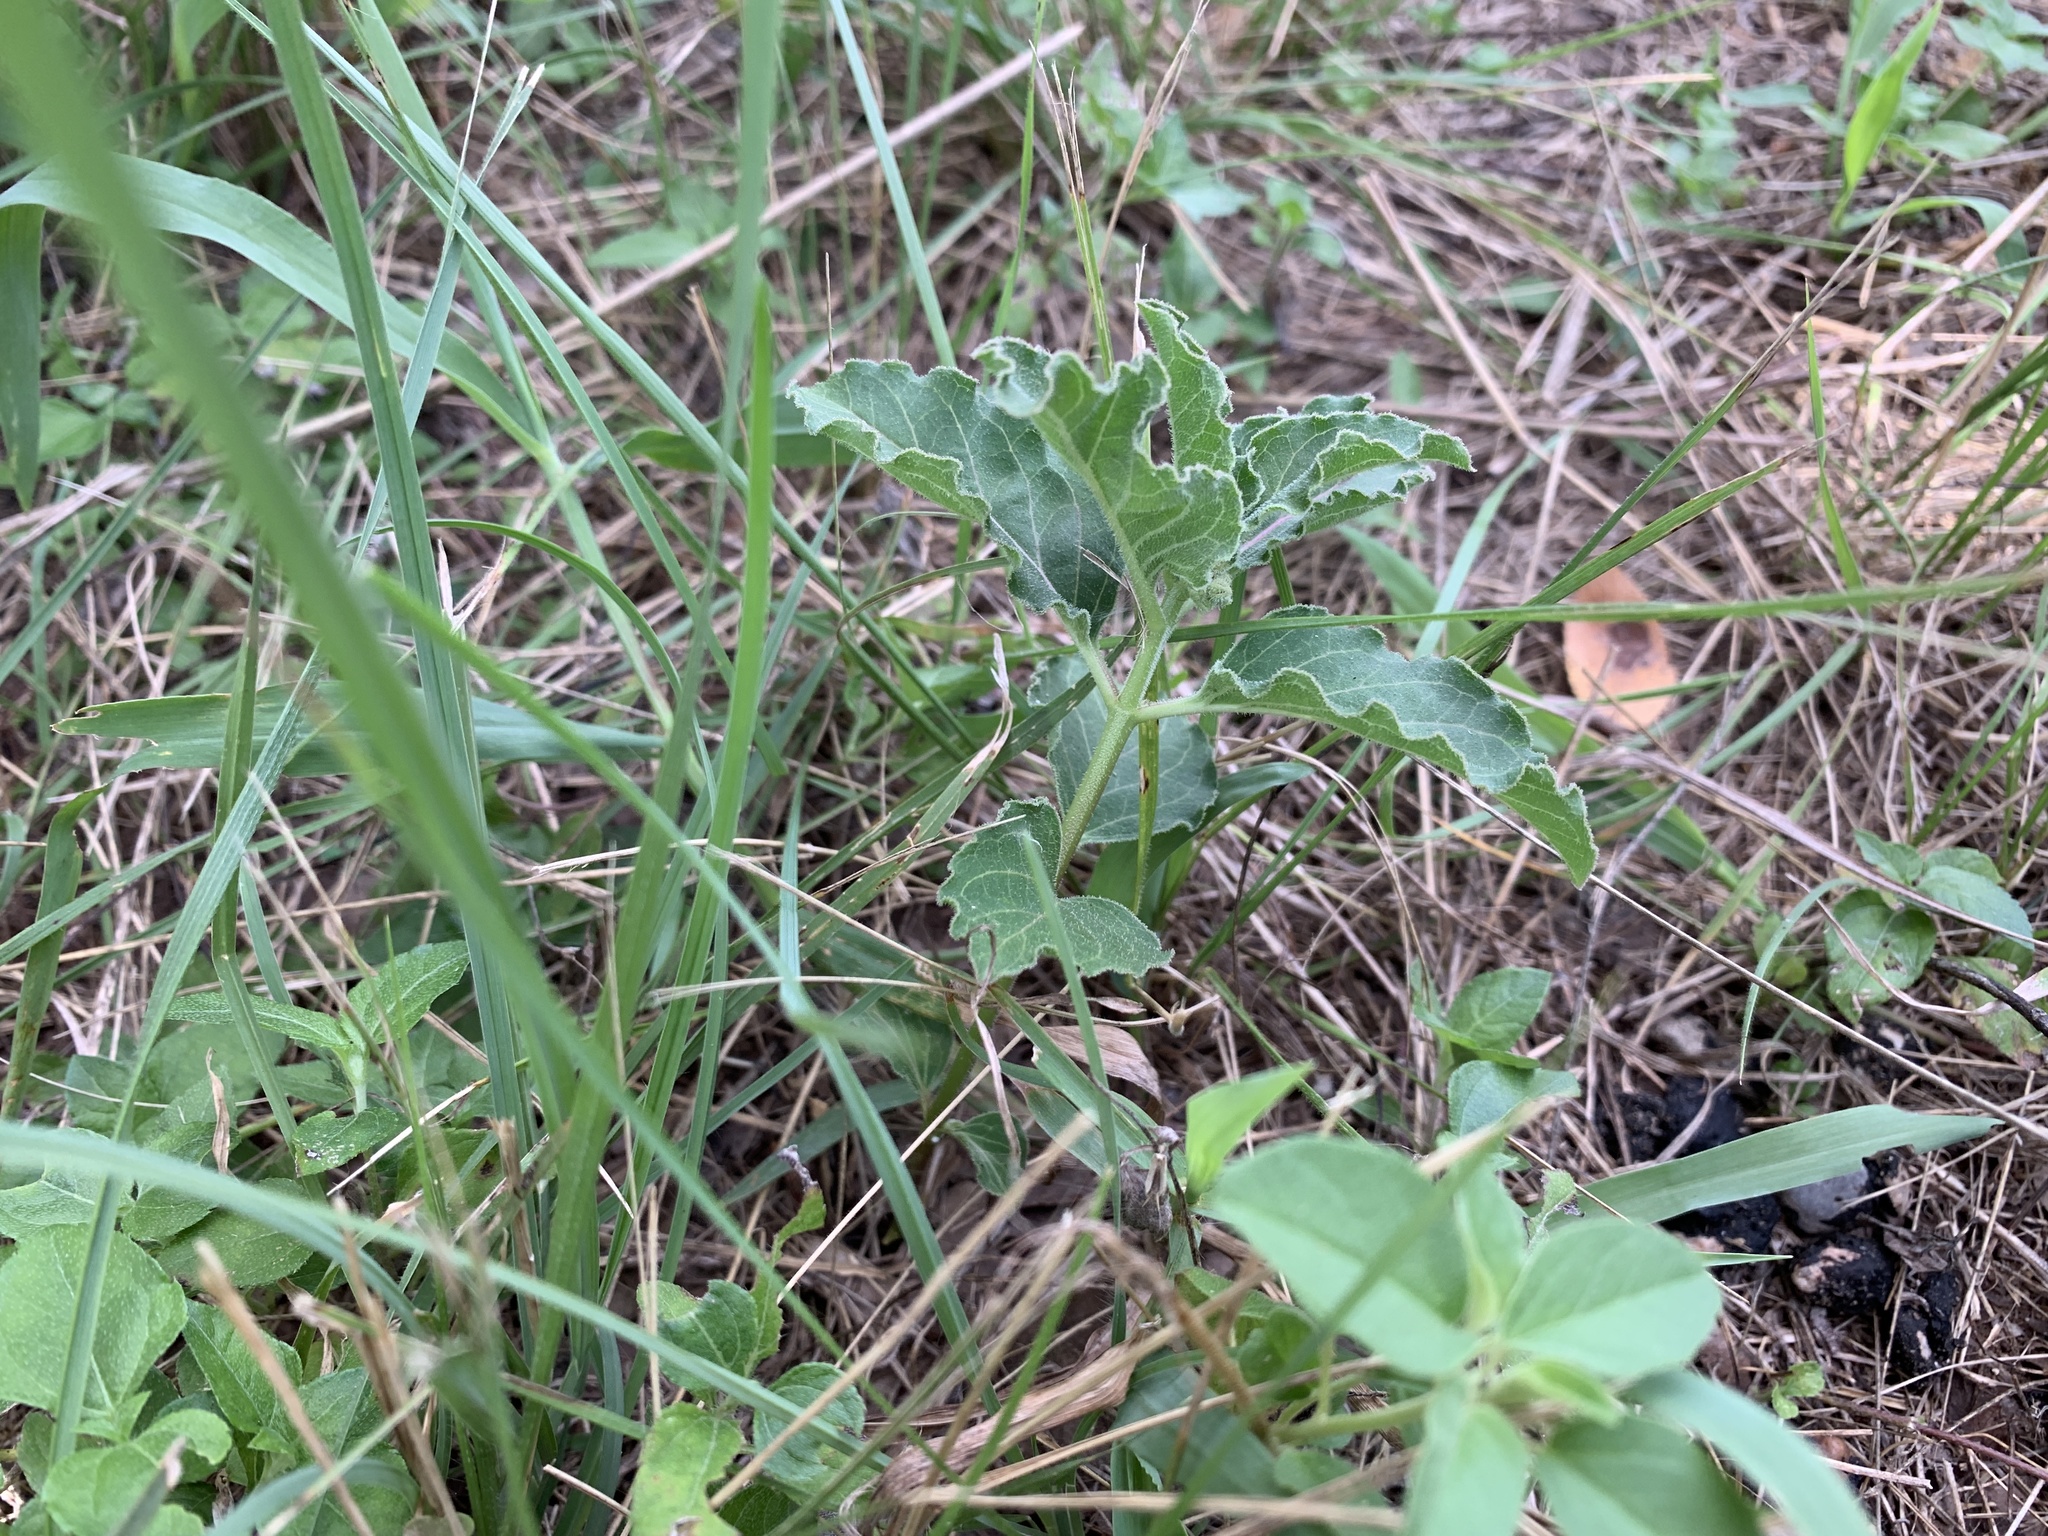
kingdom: Plantae
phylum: Tracheophyta
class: Magnoliopsida
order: Gentianales
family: Apocynaceae
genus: Asclepias
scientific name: Asclepias oenotheroides
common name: Zizotes milkweed
